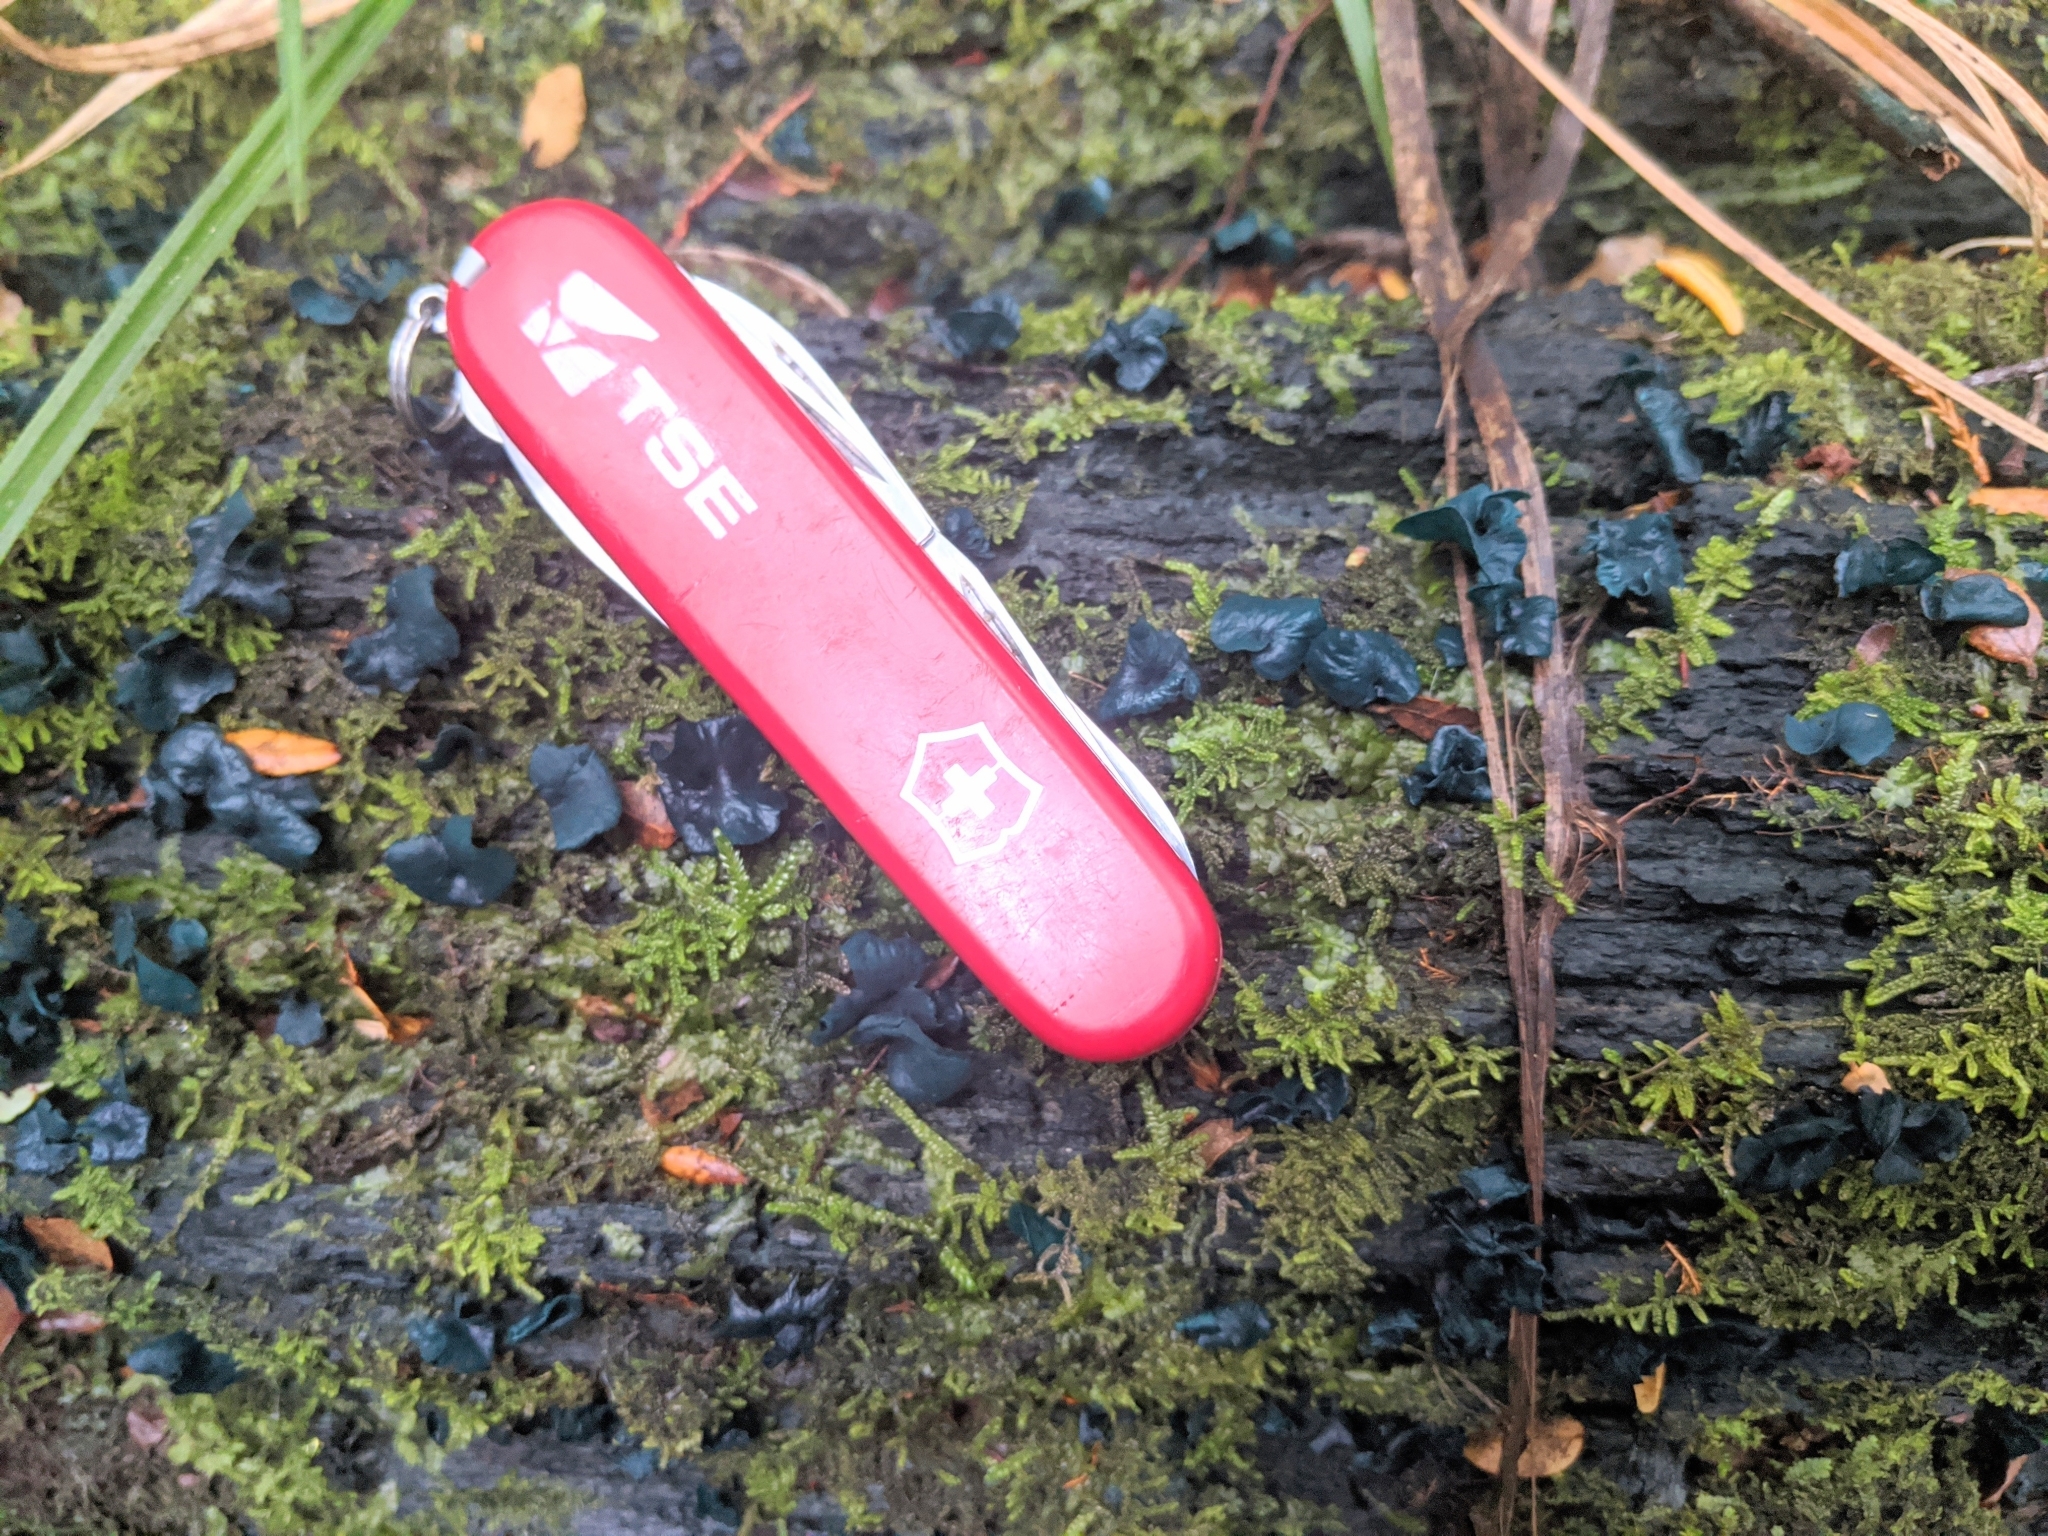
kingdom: Fungi
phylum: Ascomycota
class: Leotiomycetes
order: Helotiales
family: Chlorociboriaceae
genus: Chlorociboria
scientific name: Chlorociboria
